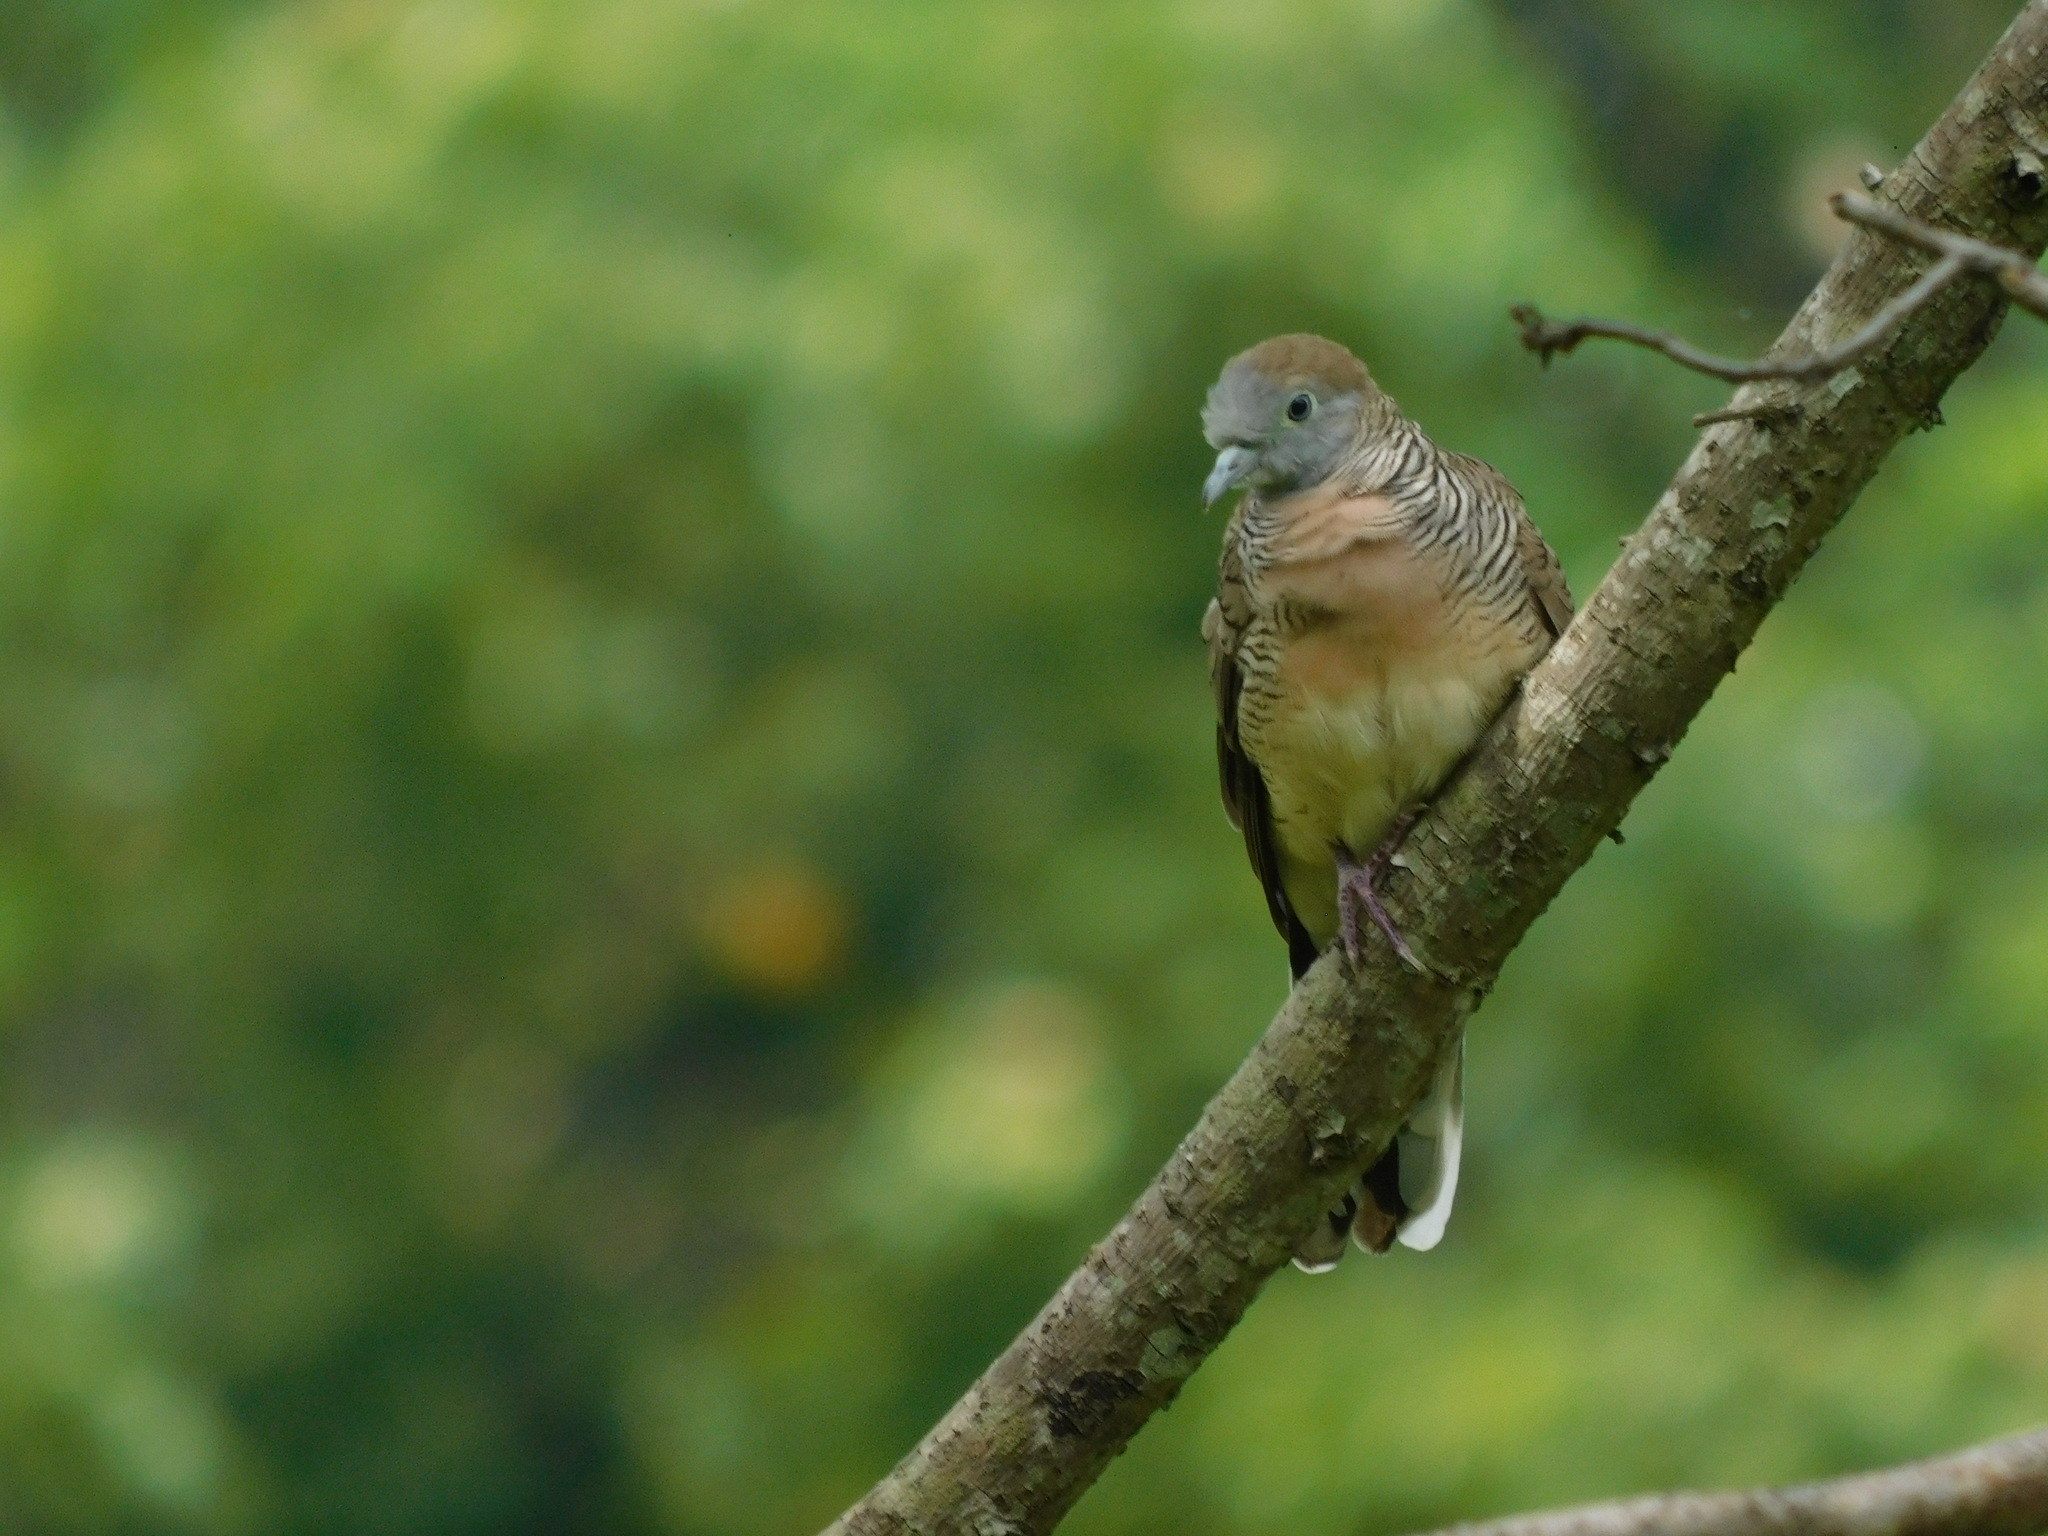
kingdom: Animalia
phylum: Chordata
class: Aves
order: Columbiformes
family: Columbidae
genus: Geopelia
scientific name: Geopelia striata
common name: Zebra dove
